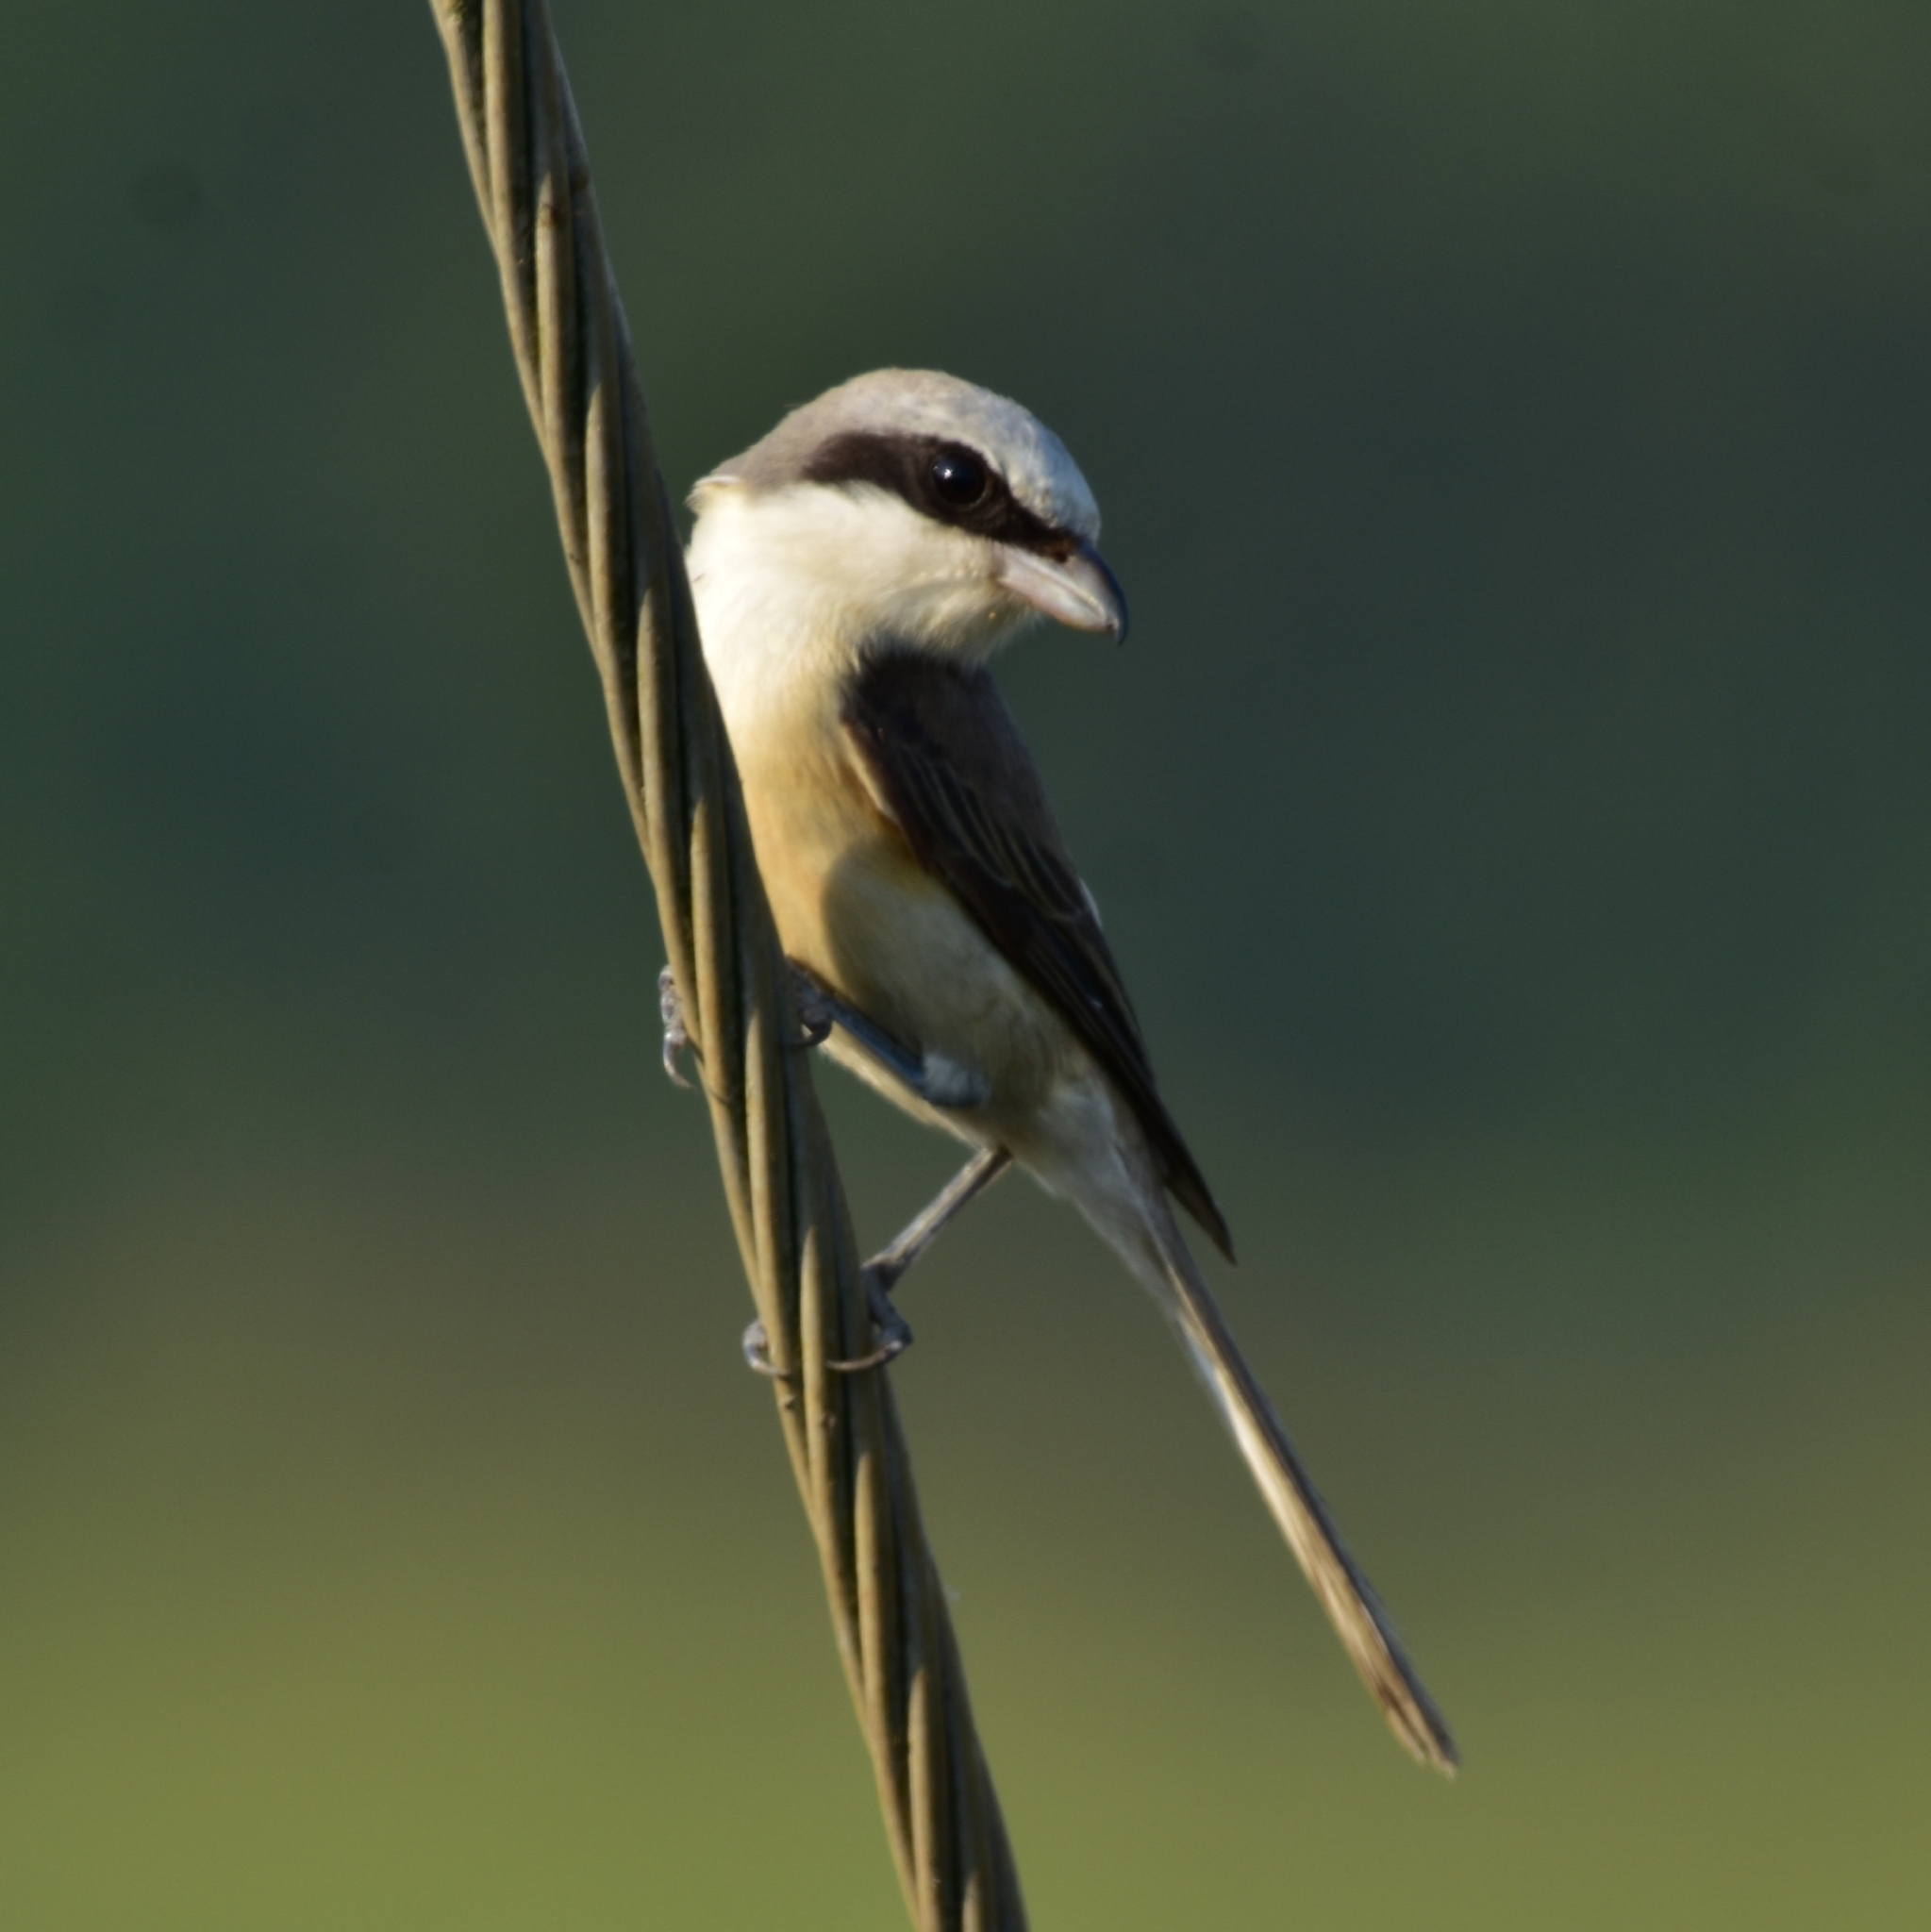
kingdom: Animalia
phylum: Chordata
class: Aves
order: Passeriformes
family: Laniidae
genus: Lanius
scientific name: Lanius cristatus
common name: Brown shrike
